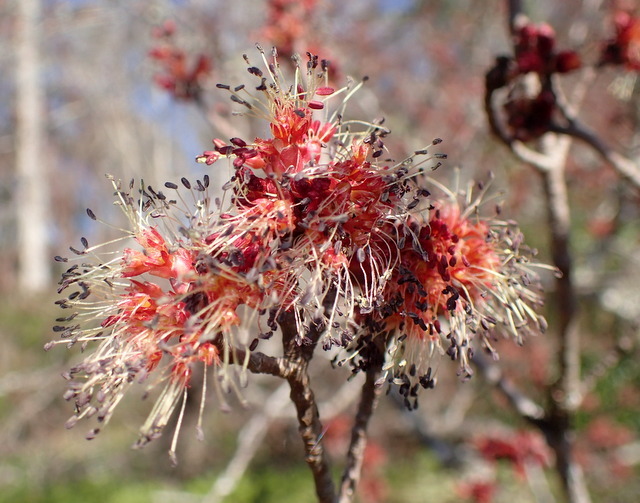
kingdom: Plantae
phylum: Tracheophyta
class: Magnoliopsida
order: Sapindales
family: Sapindaceae
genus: Acer
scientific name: Acer rubrum
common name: Red maple
